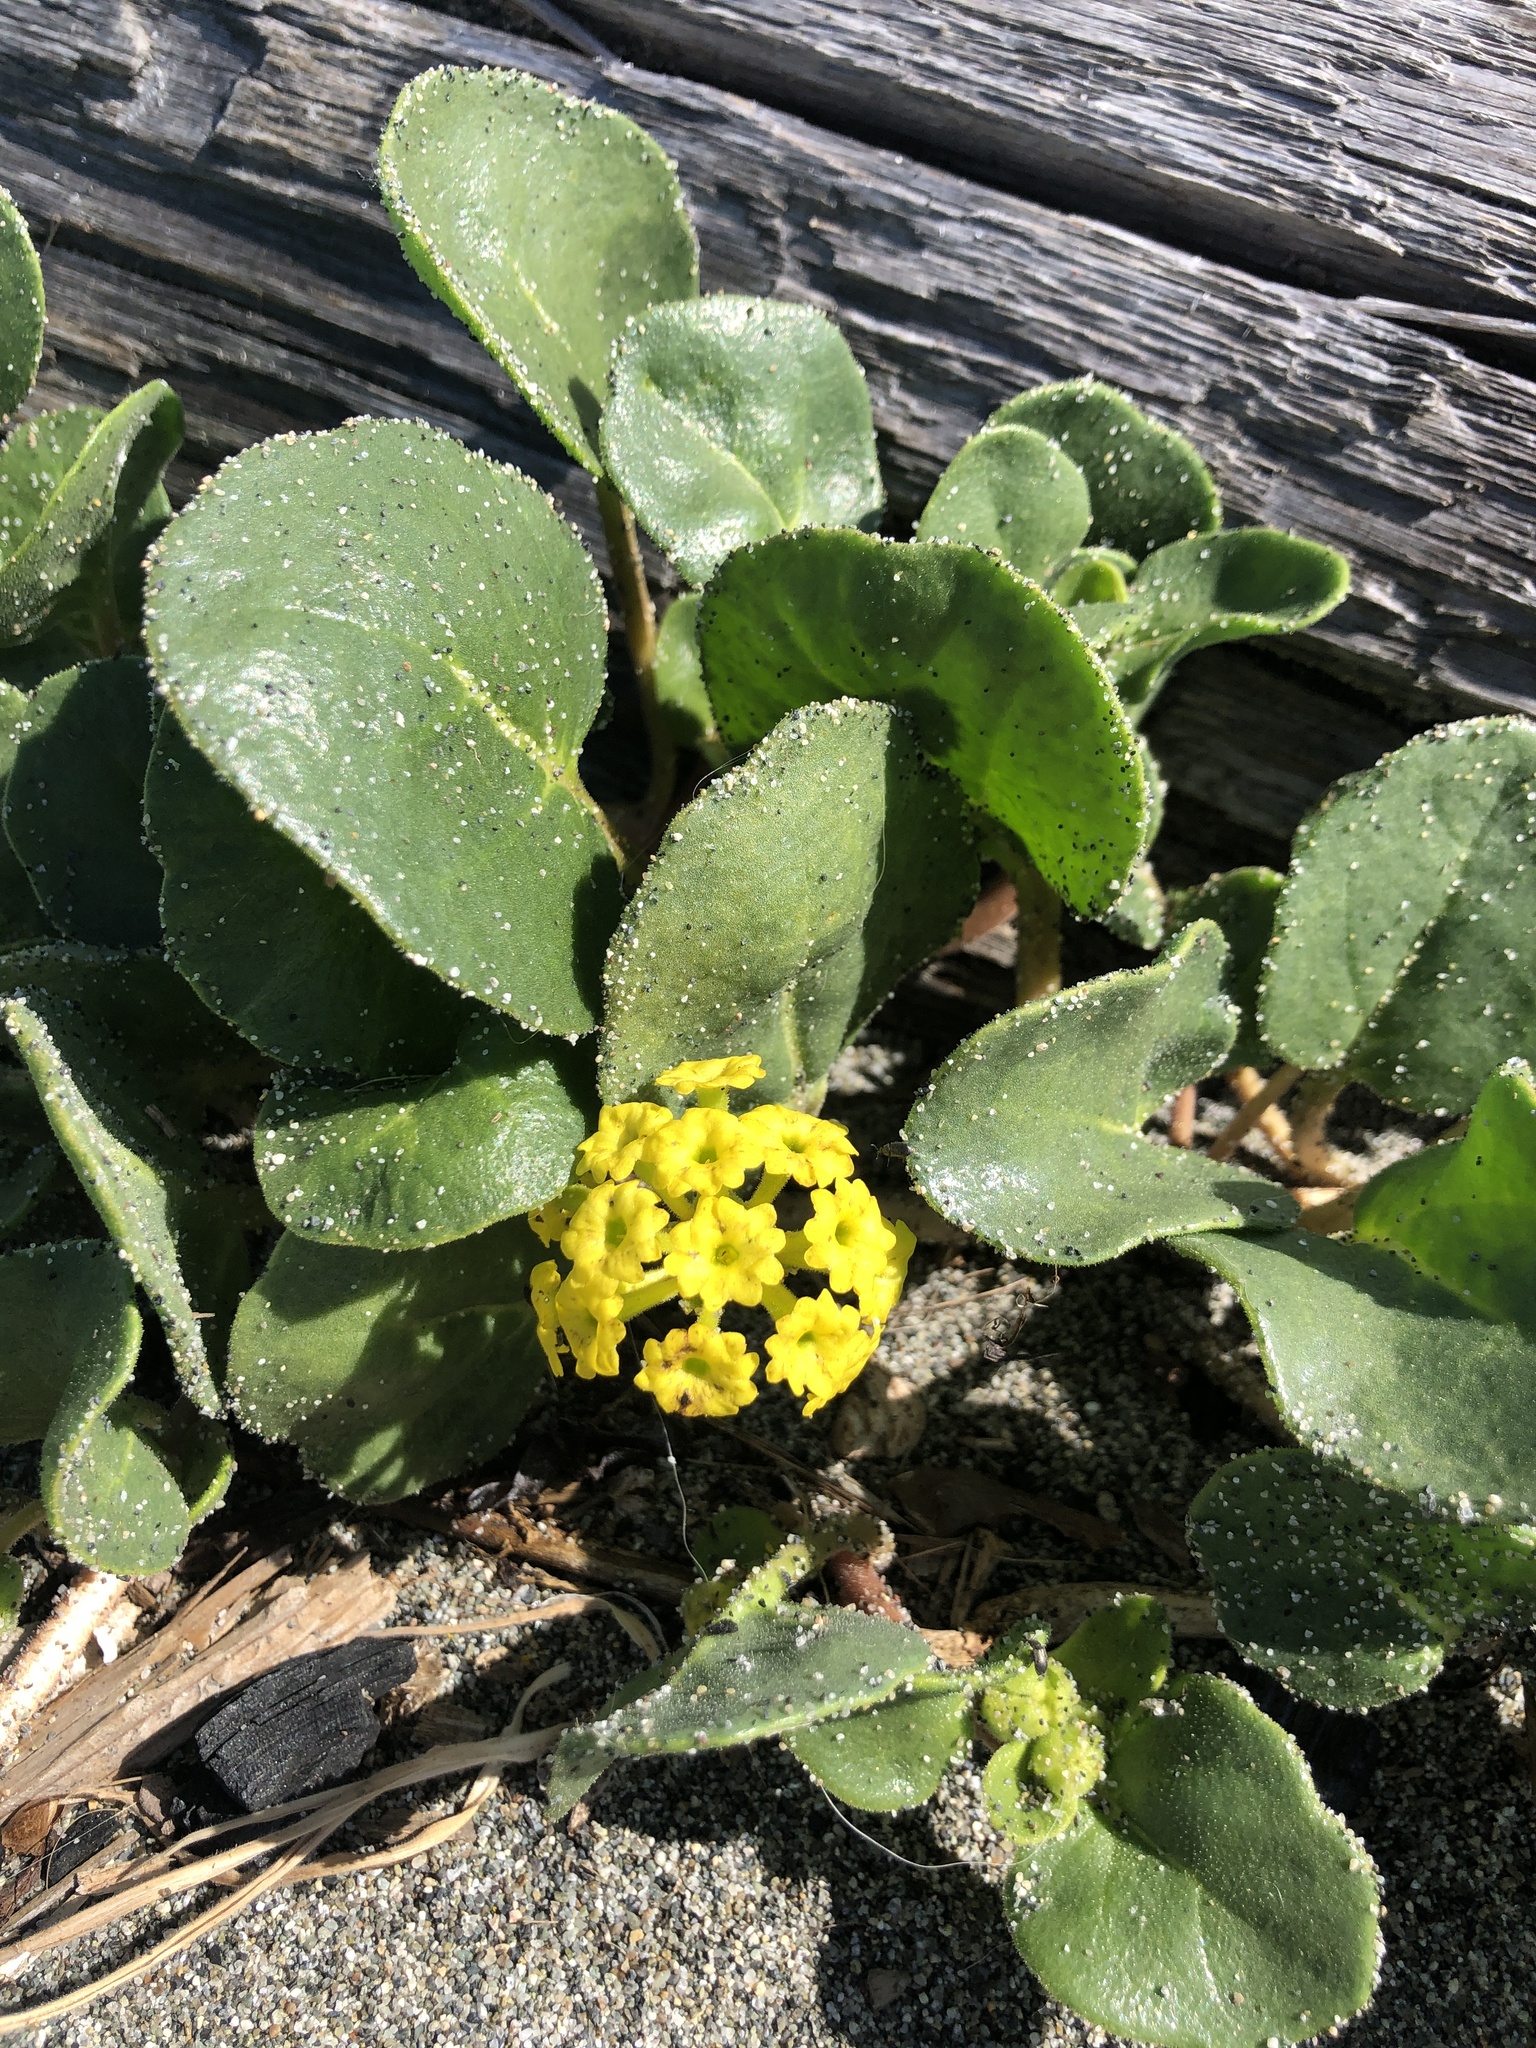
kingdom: Plantae
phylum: Tracheophyta
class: Magnoliopsida
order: Caryophyllales
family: Nyctaginaceae
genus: Abronia
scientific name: Abronia latifolia
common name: Yellow sand-verbena
